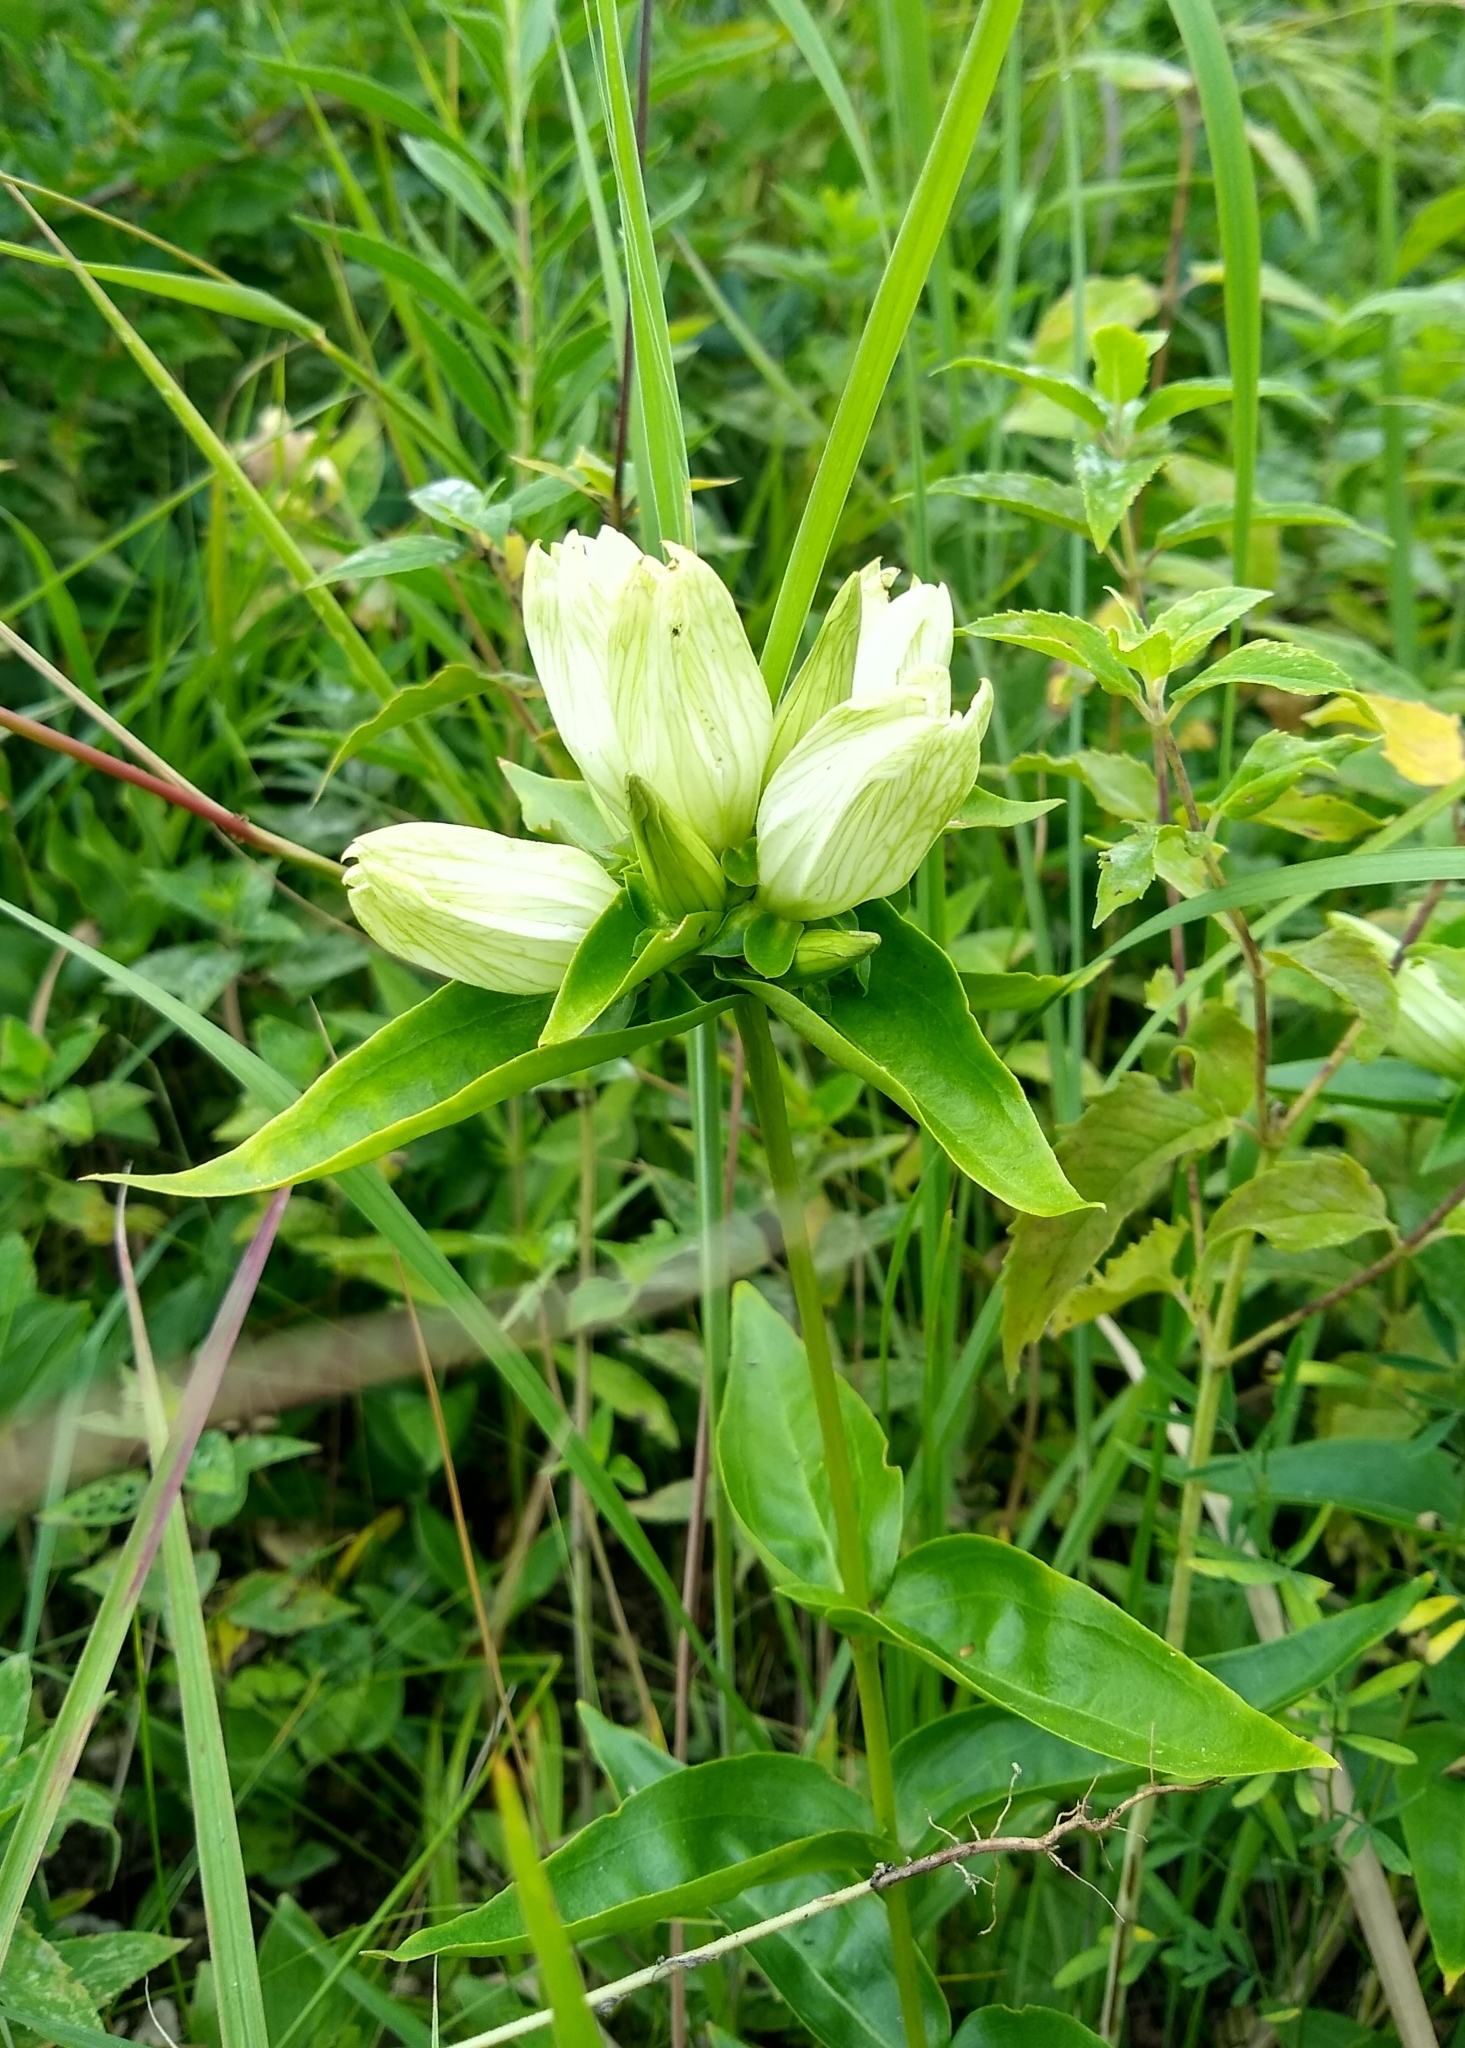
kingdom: Plantae
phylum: Tracheophyta
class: Magnoliopsida
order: Gentianales
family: Gentianaceae
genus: Gentiana
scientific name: Gentiana alba
